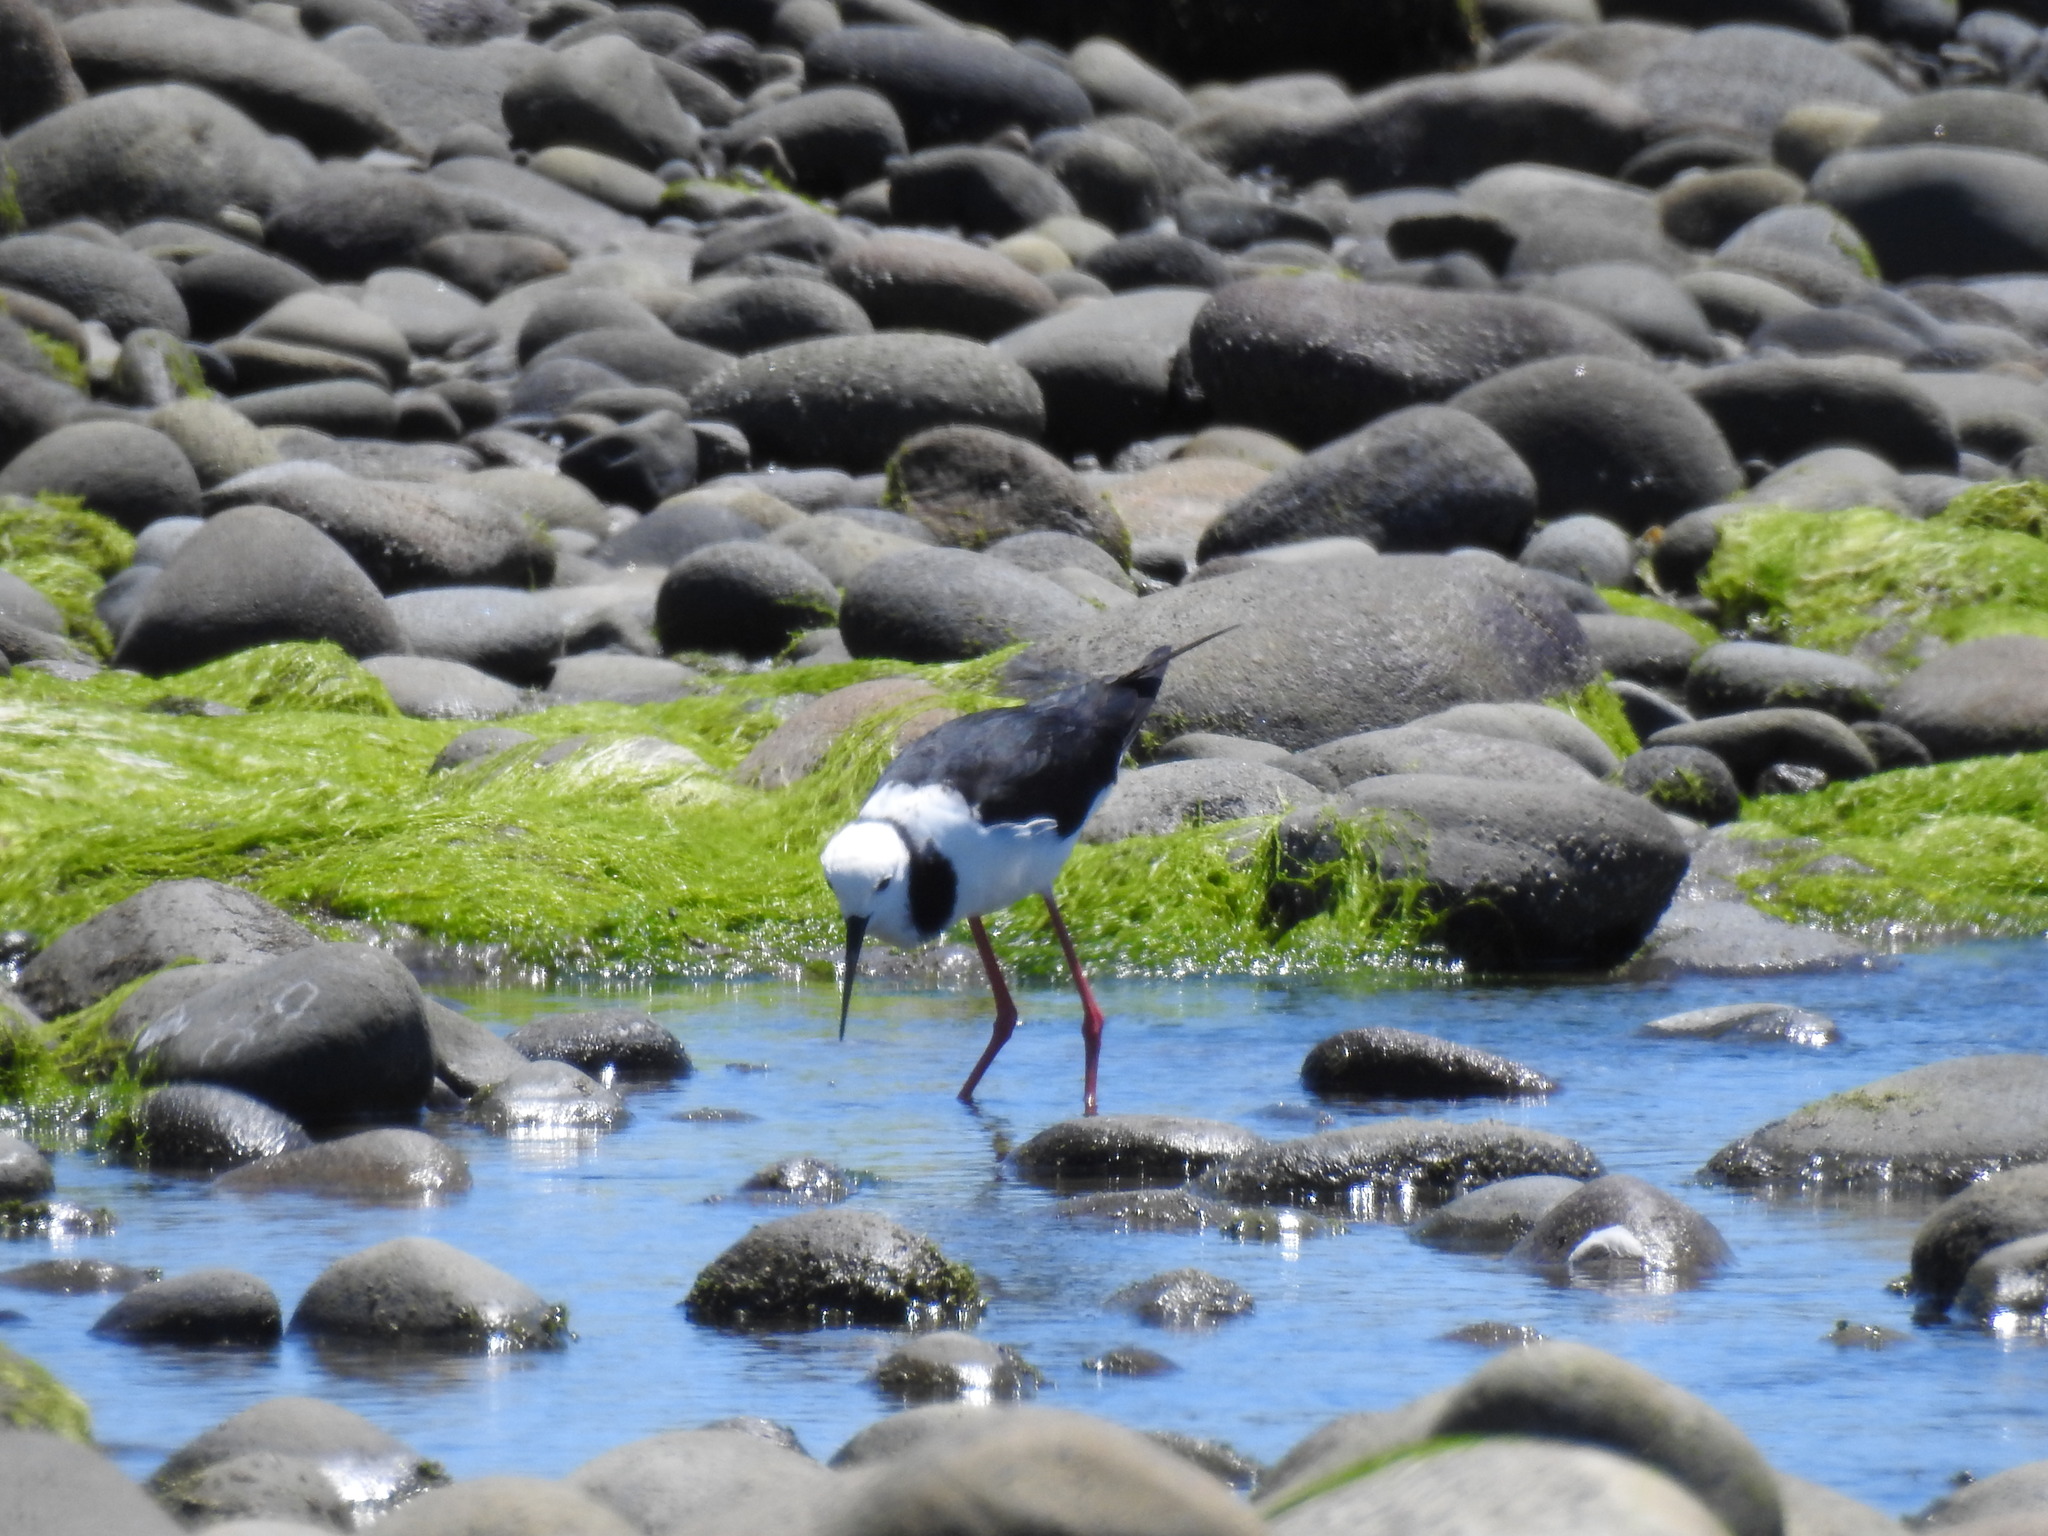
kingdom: Animalia
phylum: Chordata
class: Aves
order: Charadriiformes
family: Recurvirostridae
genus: Himantopus
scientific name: Himantopus leucocephalus
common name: White-headed stilt
